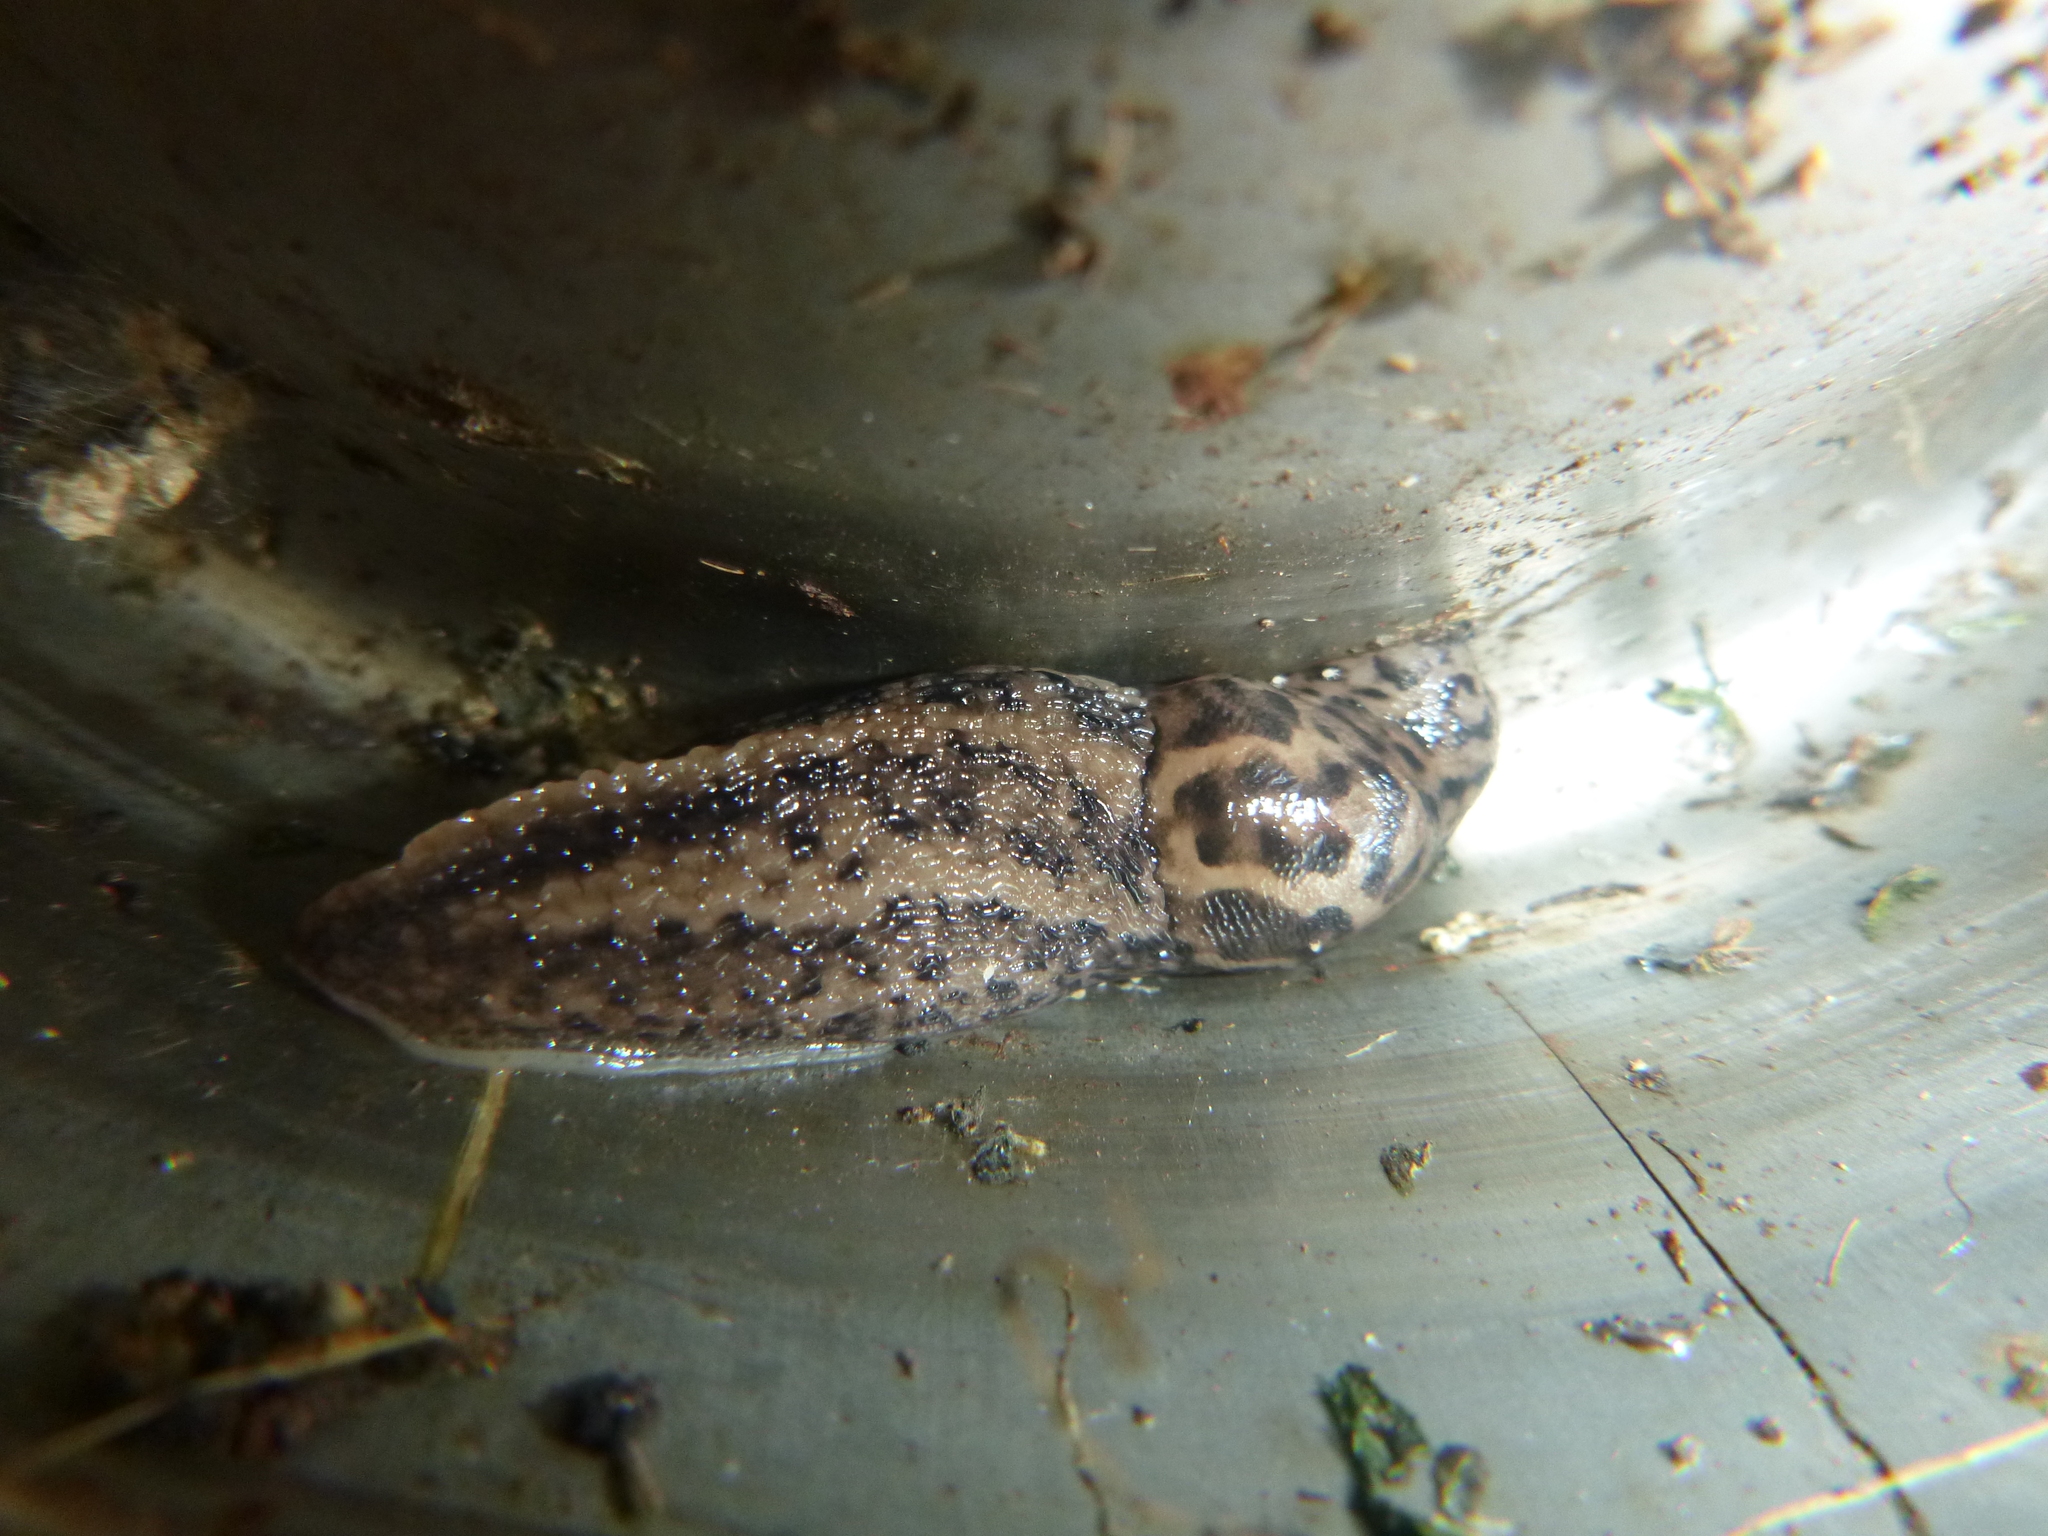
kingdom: Animalia
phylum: Mollusca
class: Gastropoda
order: Stylommatophora
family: Limacidae
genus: Limax
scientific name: Limax maximus
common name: Great grey slug
